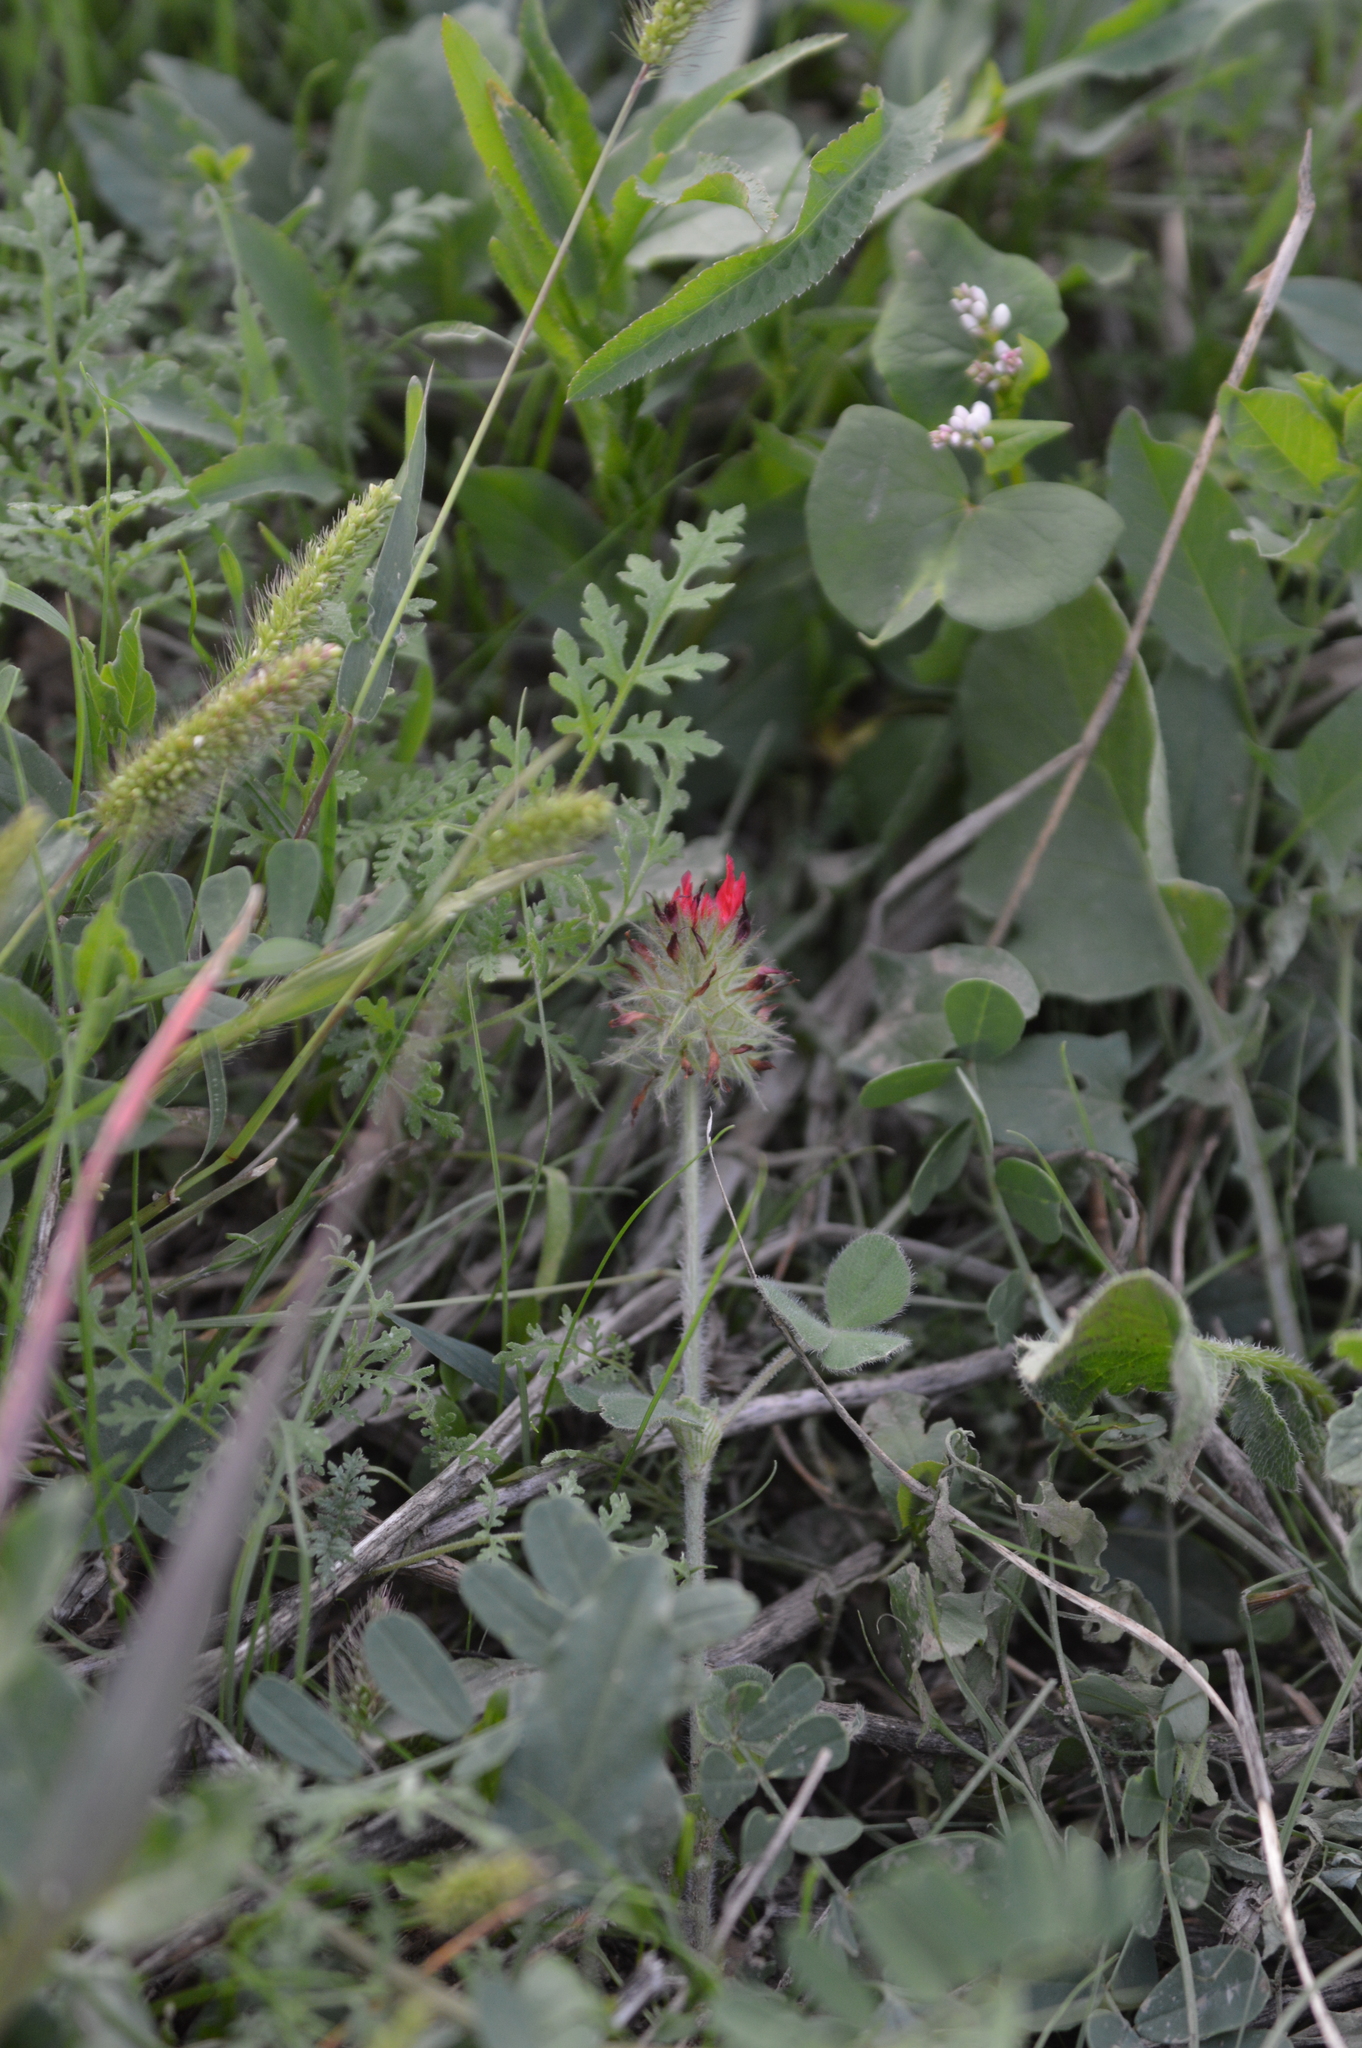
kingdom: Plantae
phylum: Tracheophyta
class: Magnoliopsida
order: Fabales
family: Fabaceae
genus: Trifolium
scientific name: Trifolium incarnatum
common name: Crimson clover
